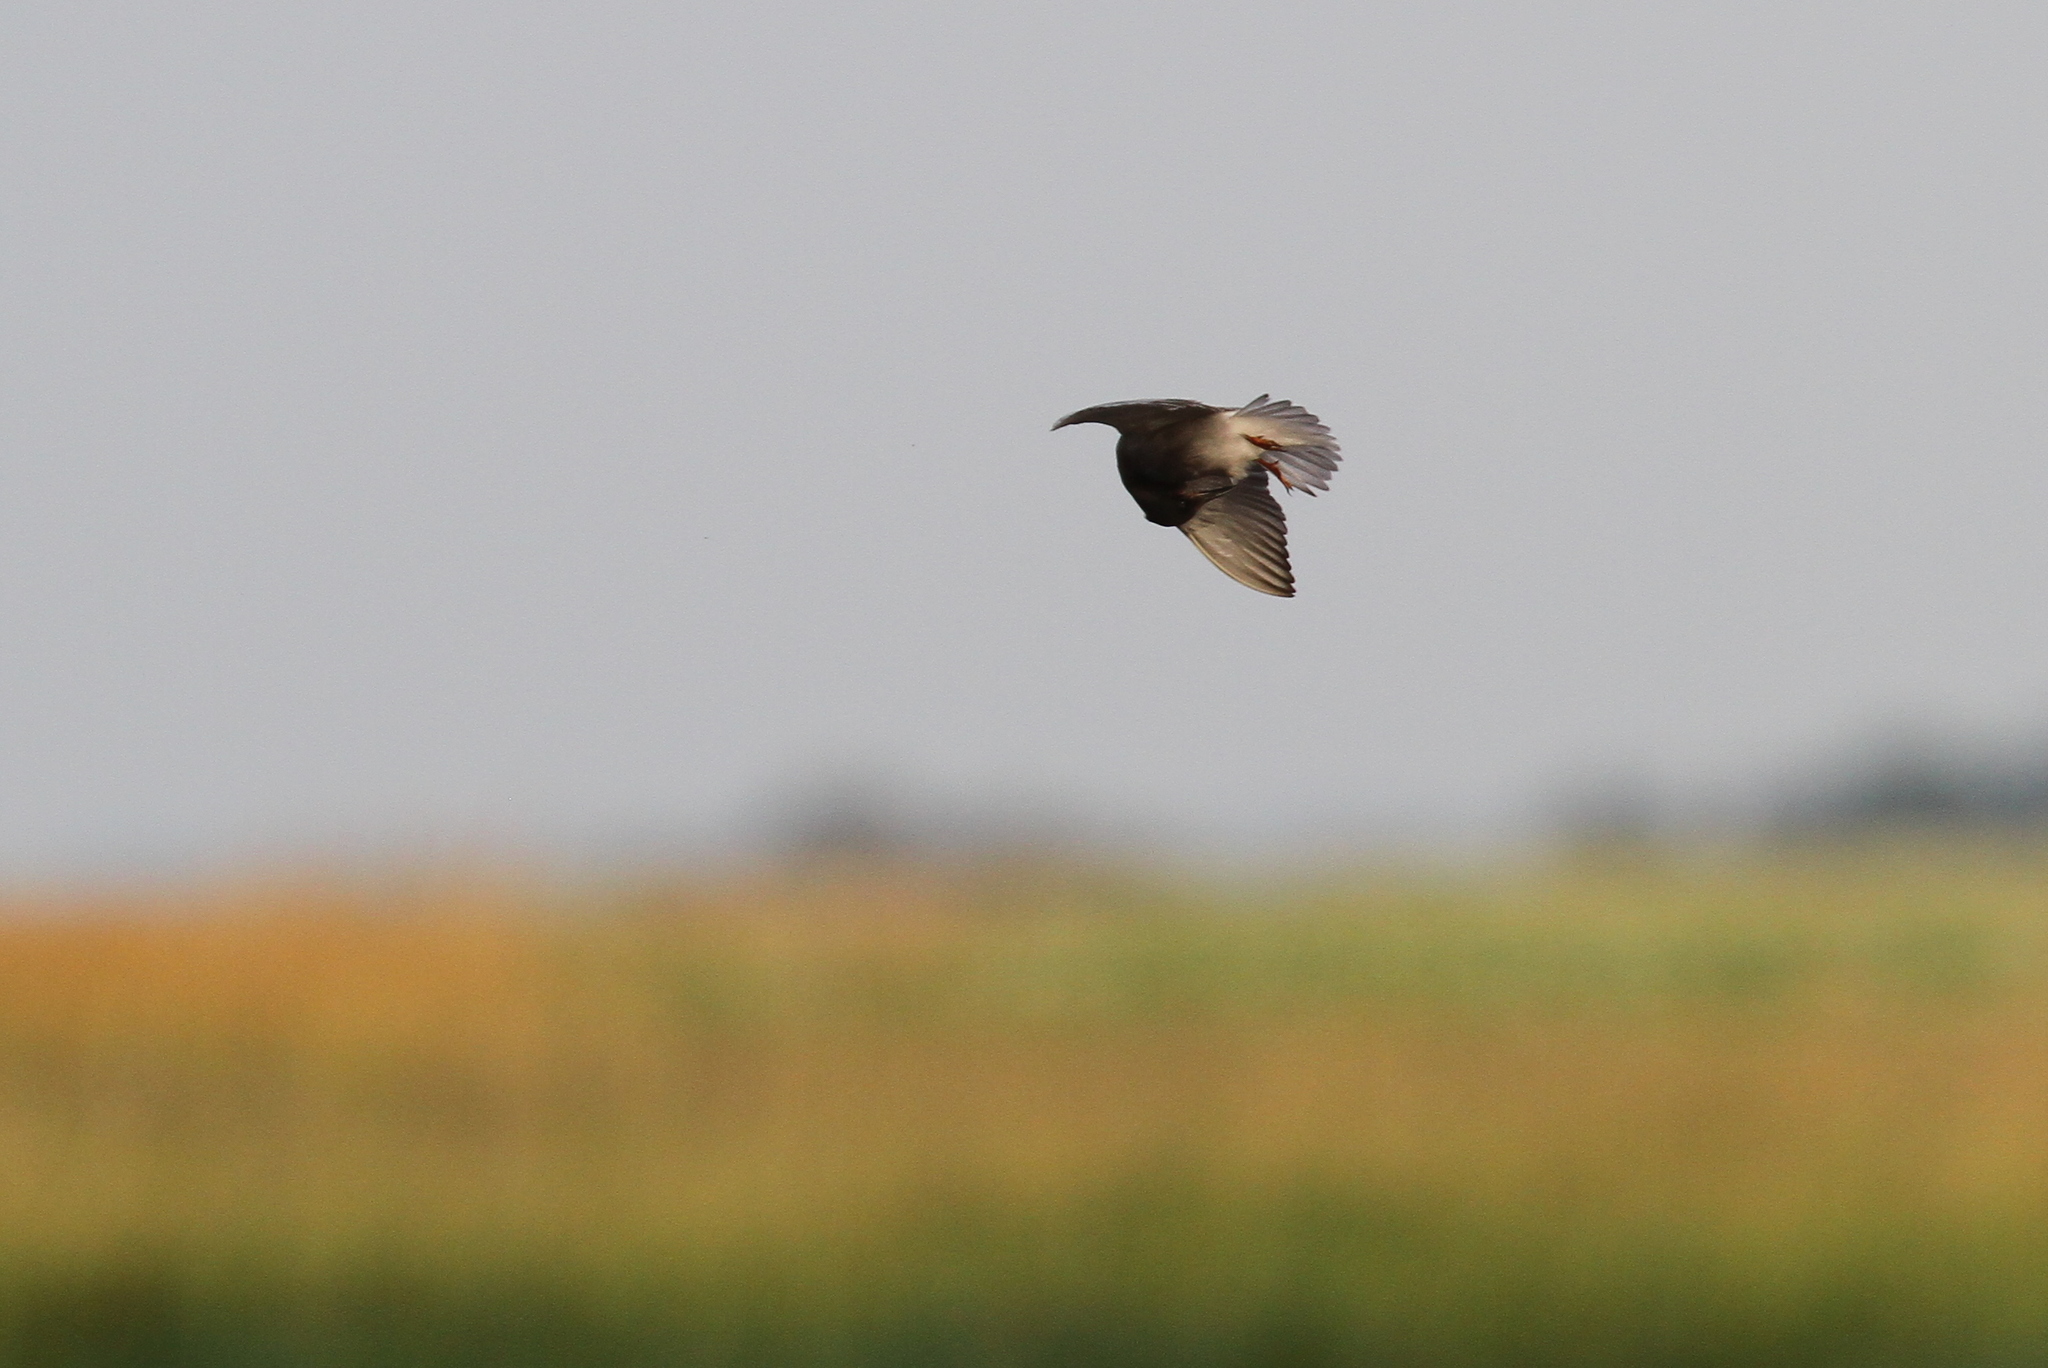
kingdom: Animalia
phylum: Chordata
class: Aves
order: Charadriiformes
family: Laridae
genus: Chlidonias
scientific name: Chlidonias niger
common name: Black tern
